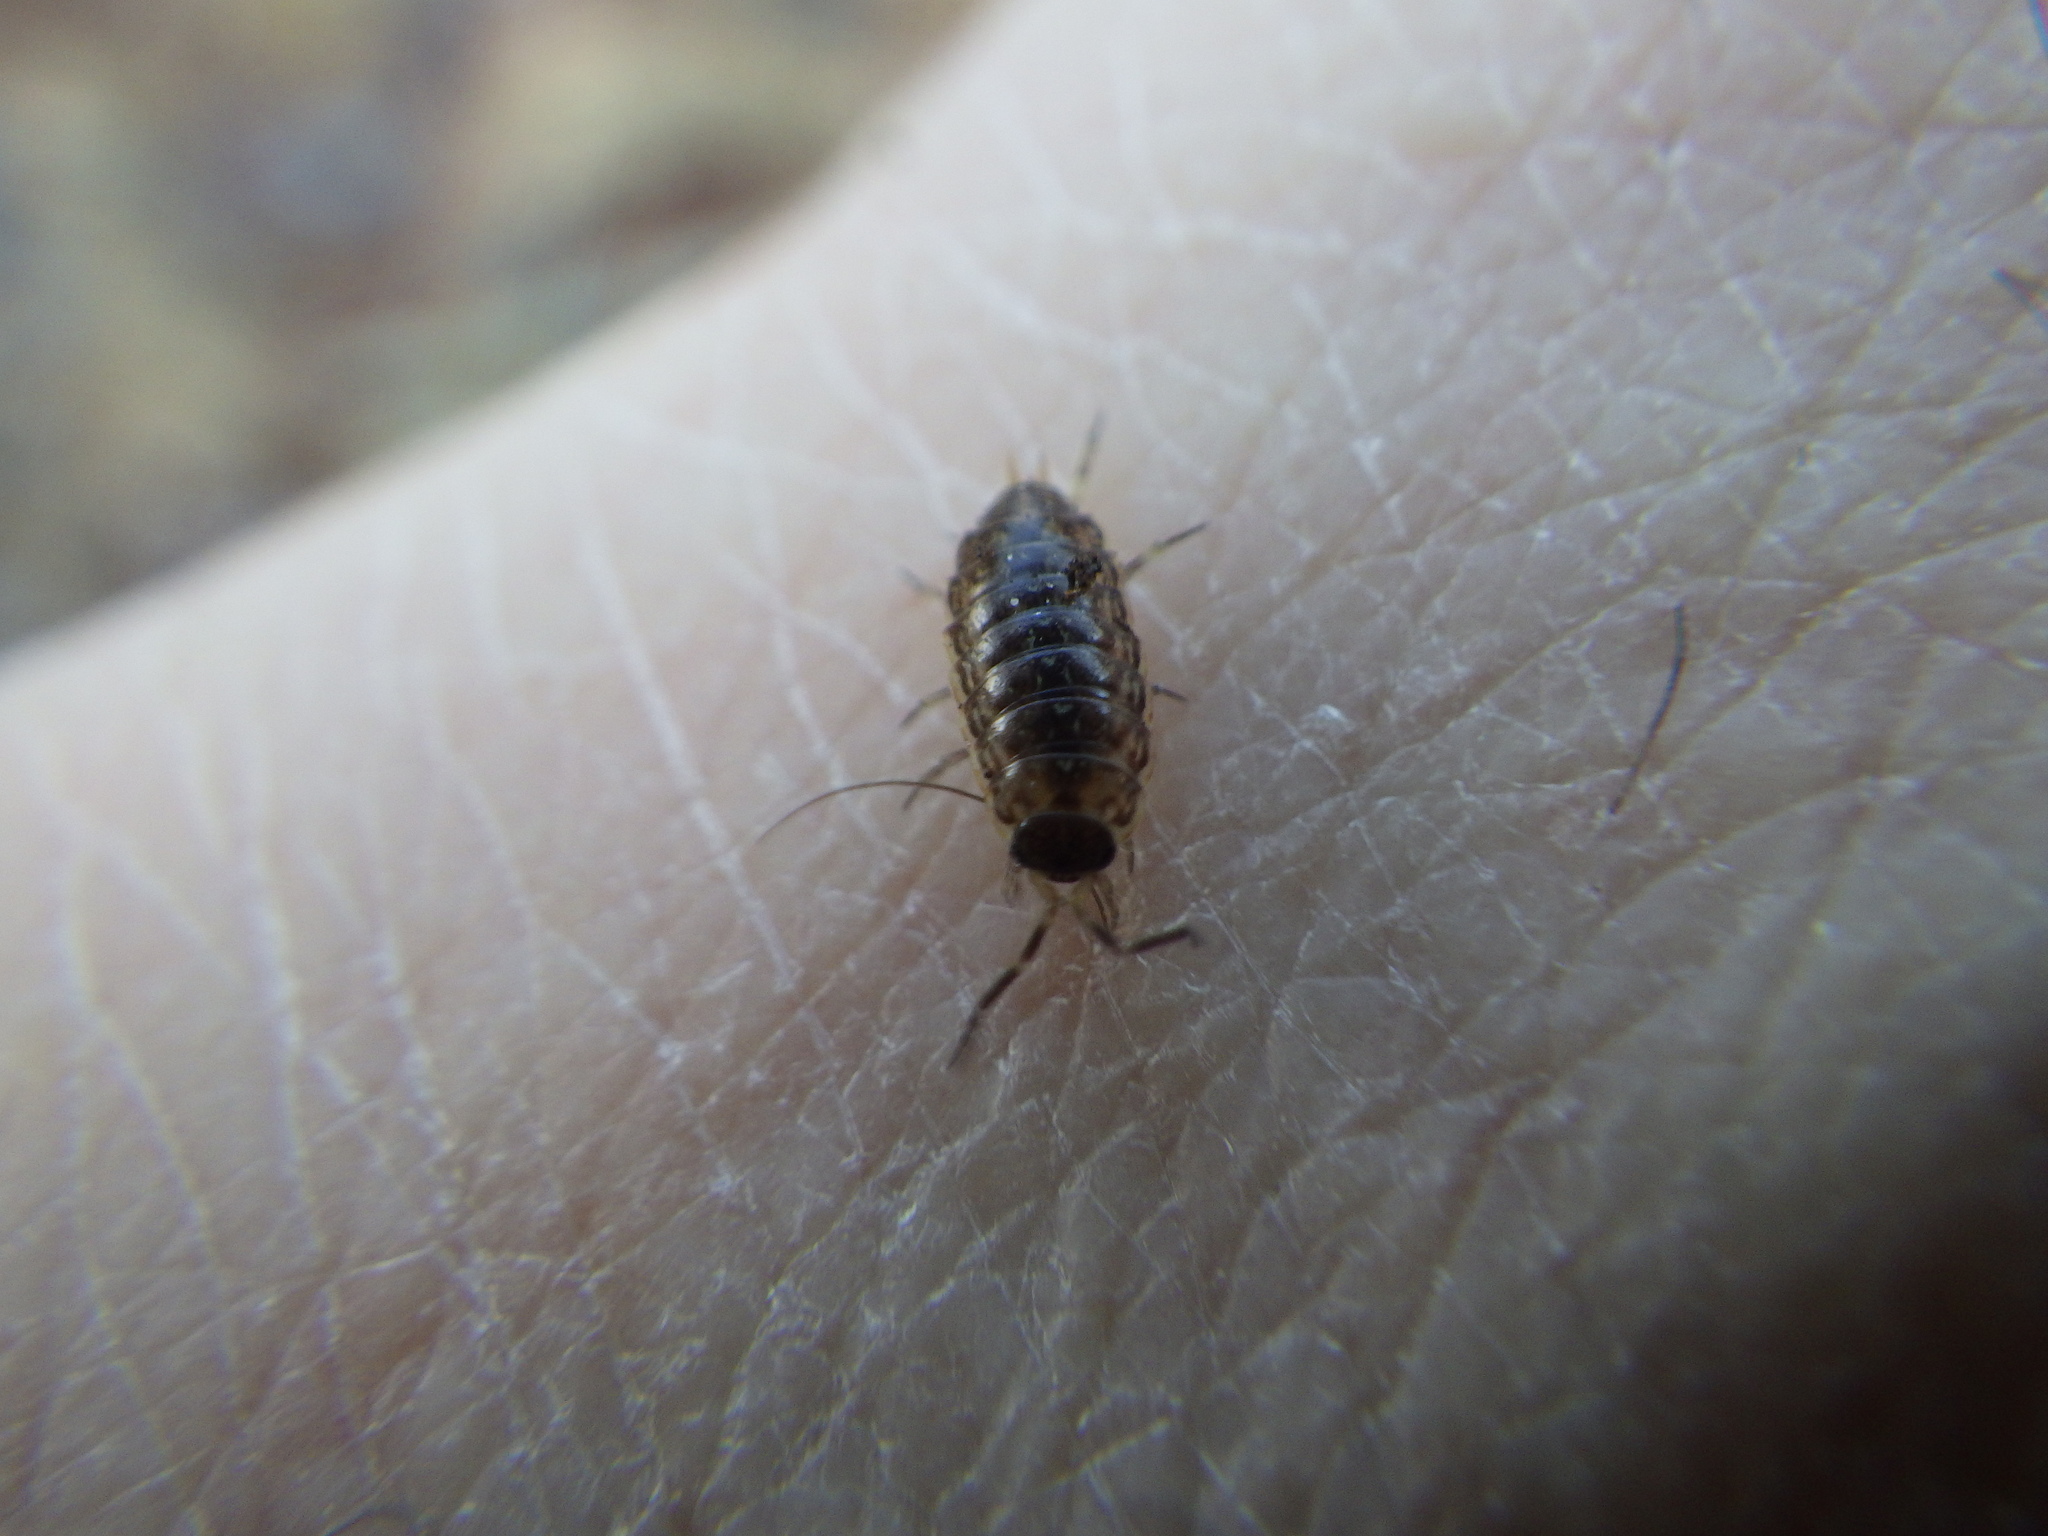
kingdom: Animalia
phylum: Arthropoda
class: Malacostraca
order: Isopoda
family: Philosciidae
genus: Philoscia
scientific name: Philoscia muscorum
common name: Common striped woodlouse
